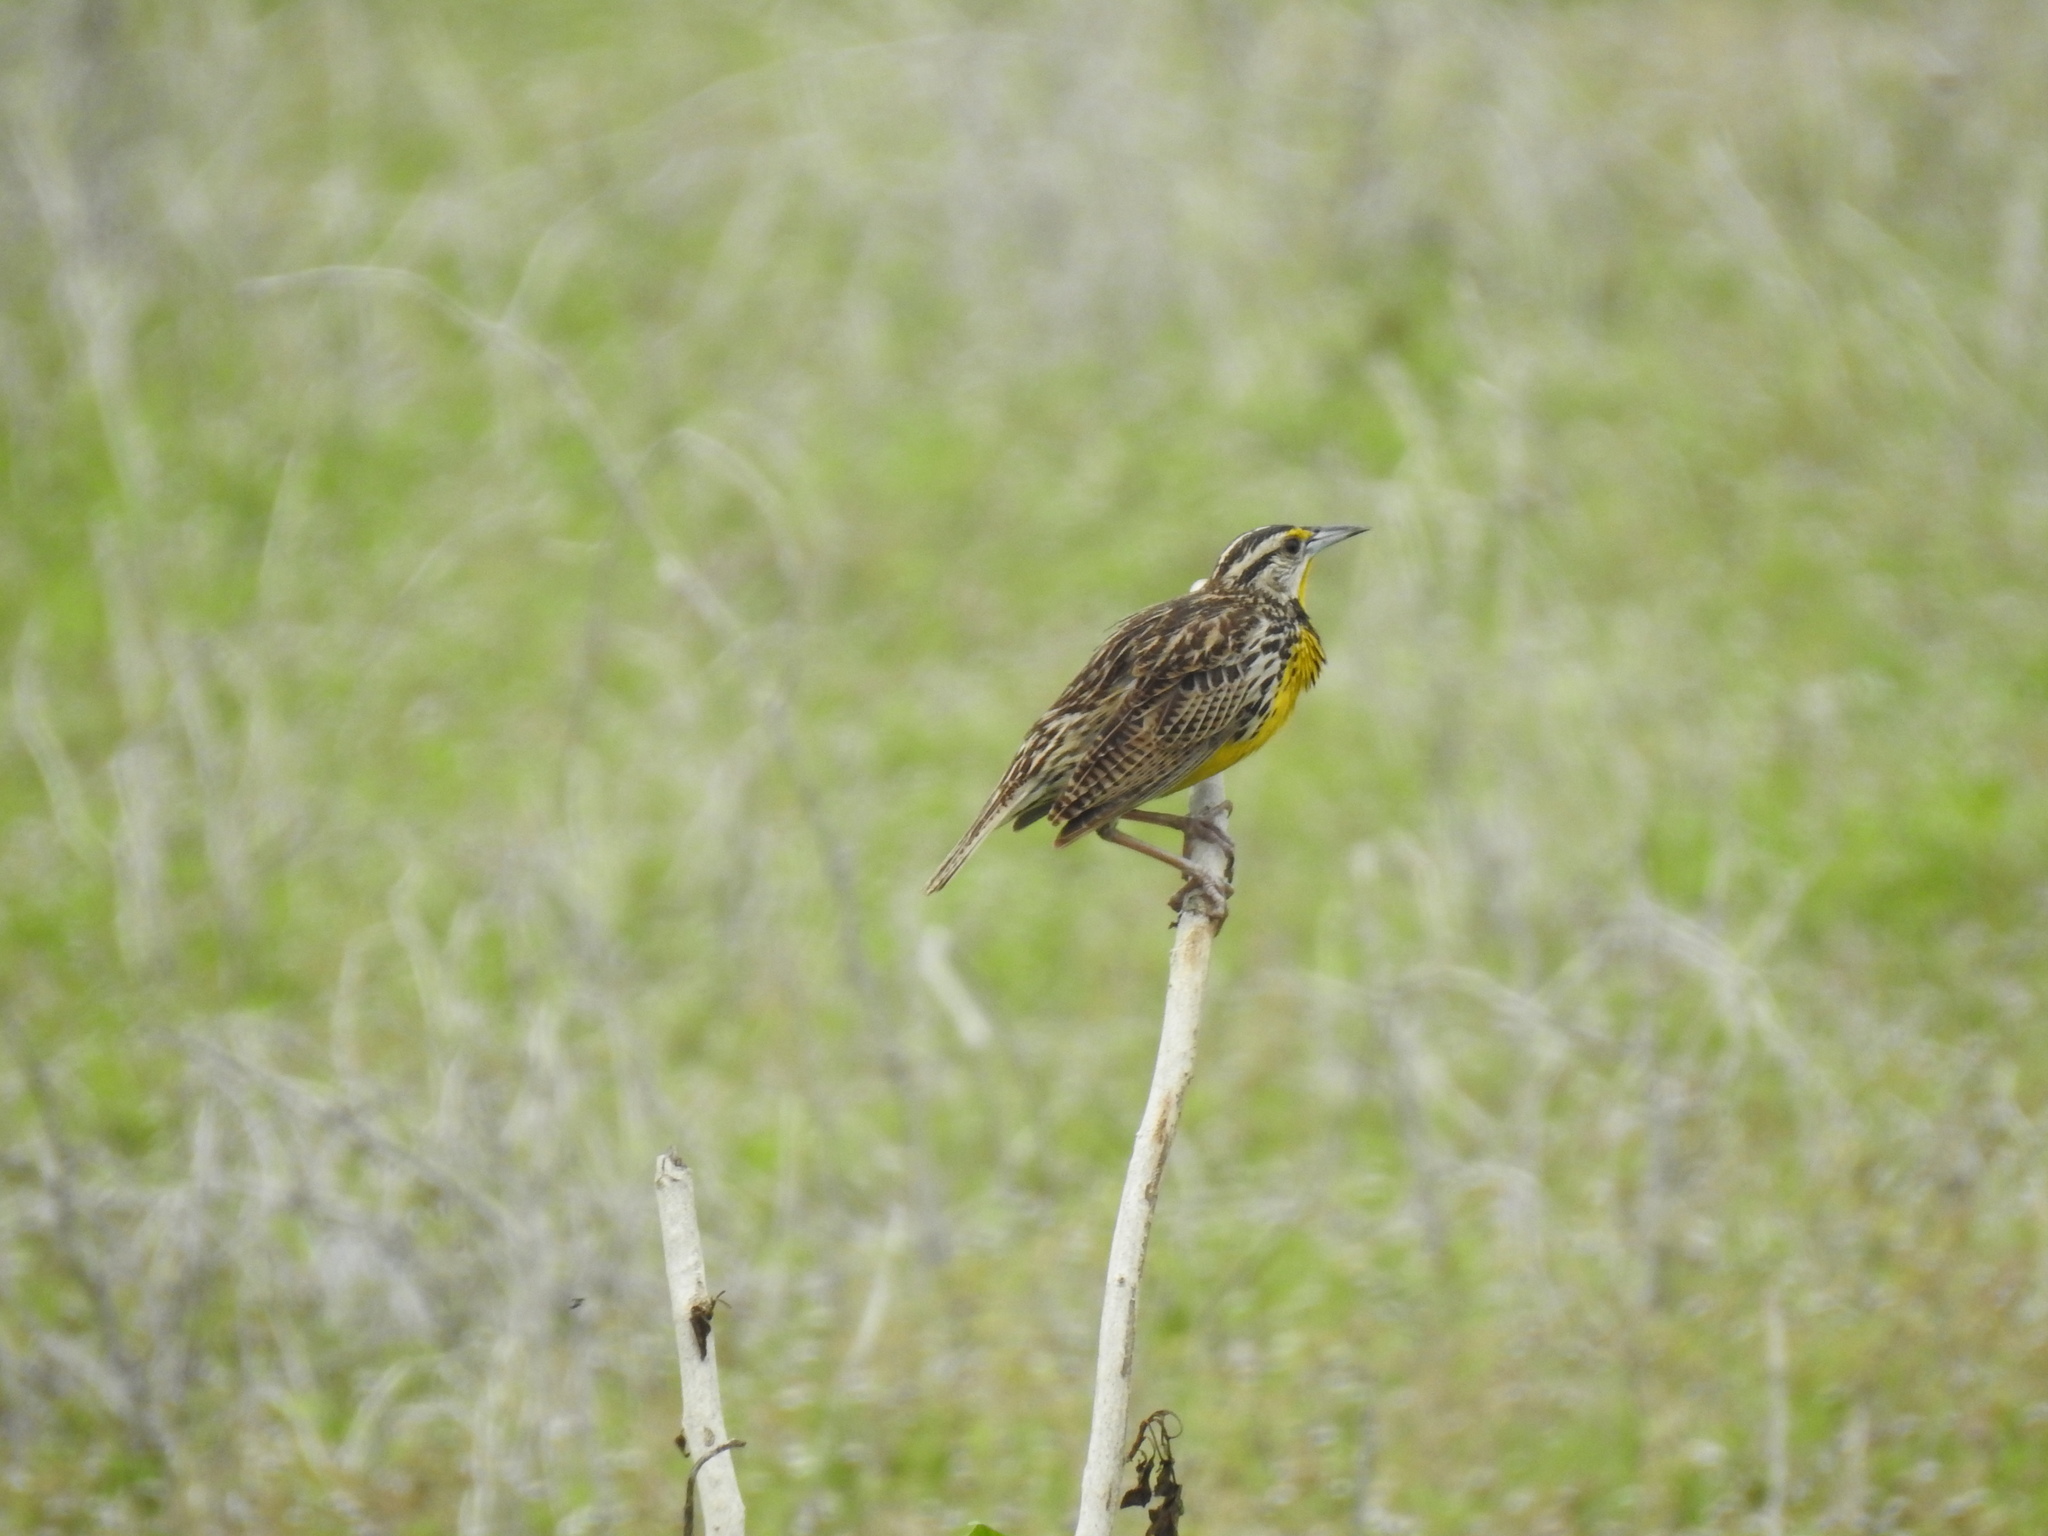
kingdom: Animalia
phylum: Chordata
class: Aves
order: Passeriformes
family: Icteridae
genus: Sturnella
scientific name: Sturnella magna
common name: Eastern meadowlark
